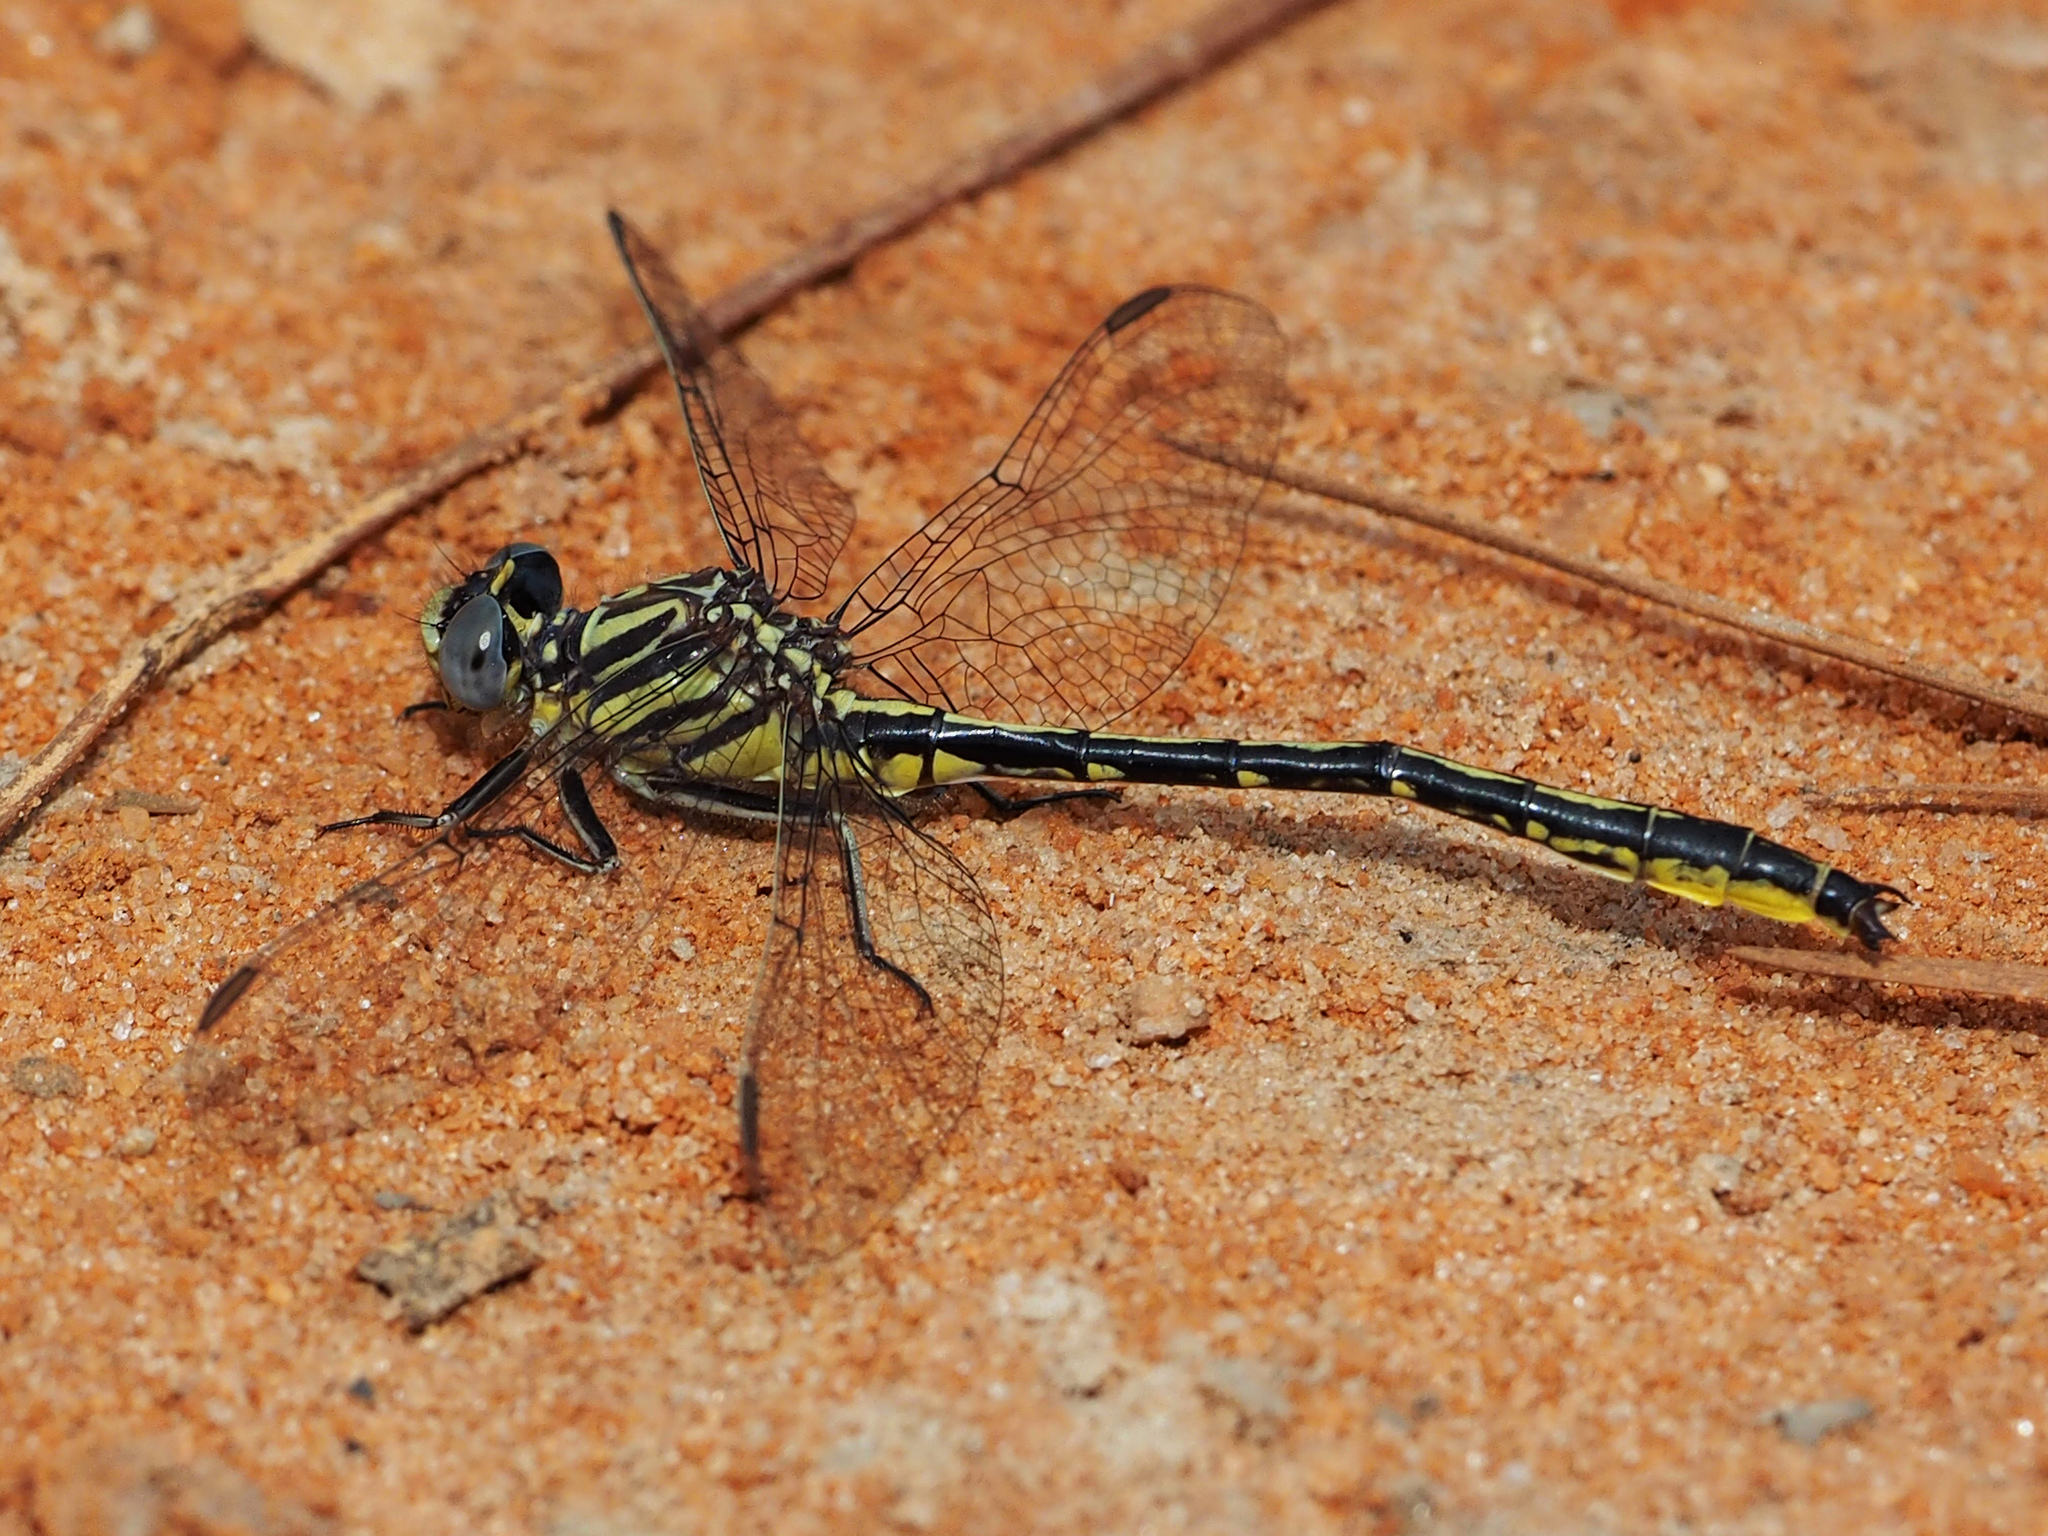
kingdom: Animalia
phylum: Arthropoda
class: Insecta
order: Odonata
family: Gomphidae
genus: Phanogomphus
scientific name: Phanogomphus hodgesi
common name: Hodges' clubtail
